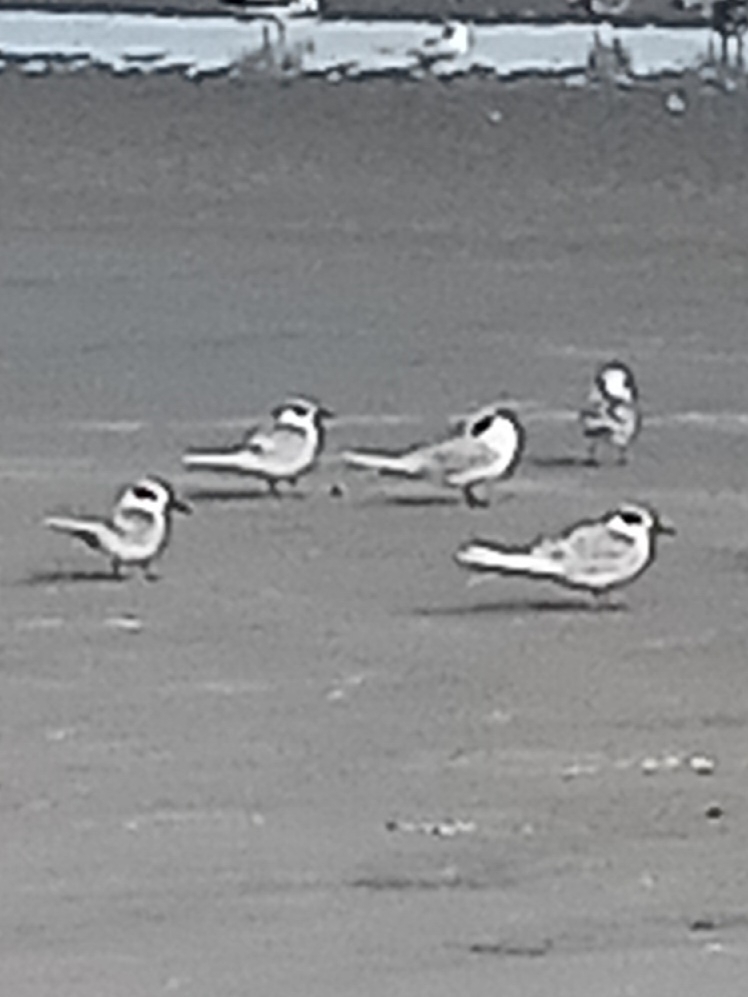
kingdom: Animalia
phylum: Chordata
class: Aves
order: Charadriiformes
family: Laridae
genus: Sterna
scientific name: Sterna forsteri
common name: Forster's tern
